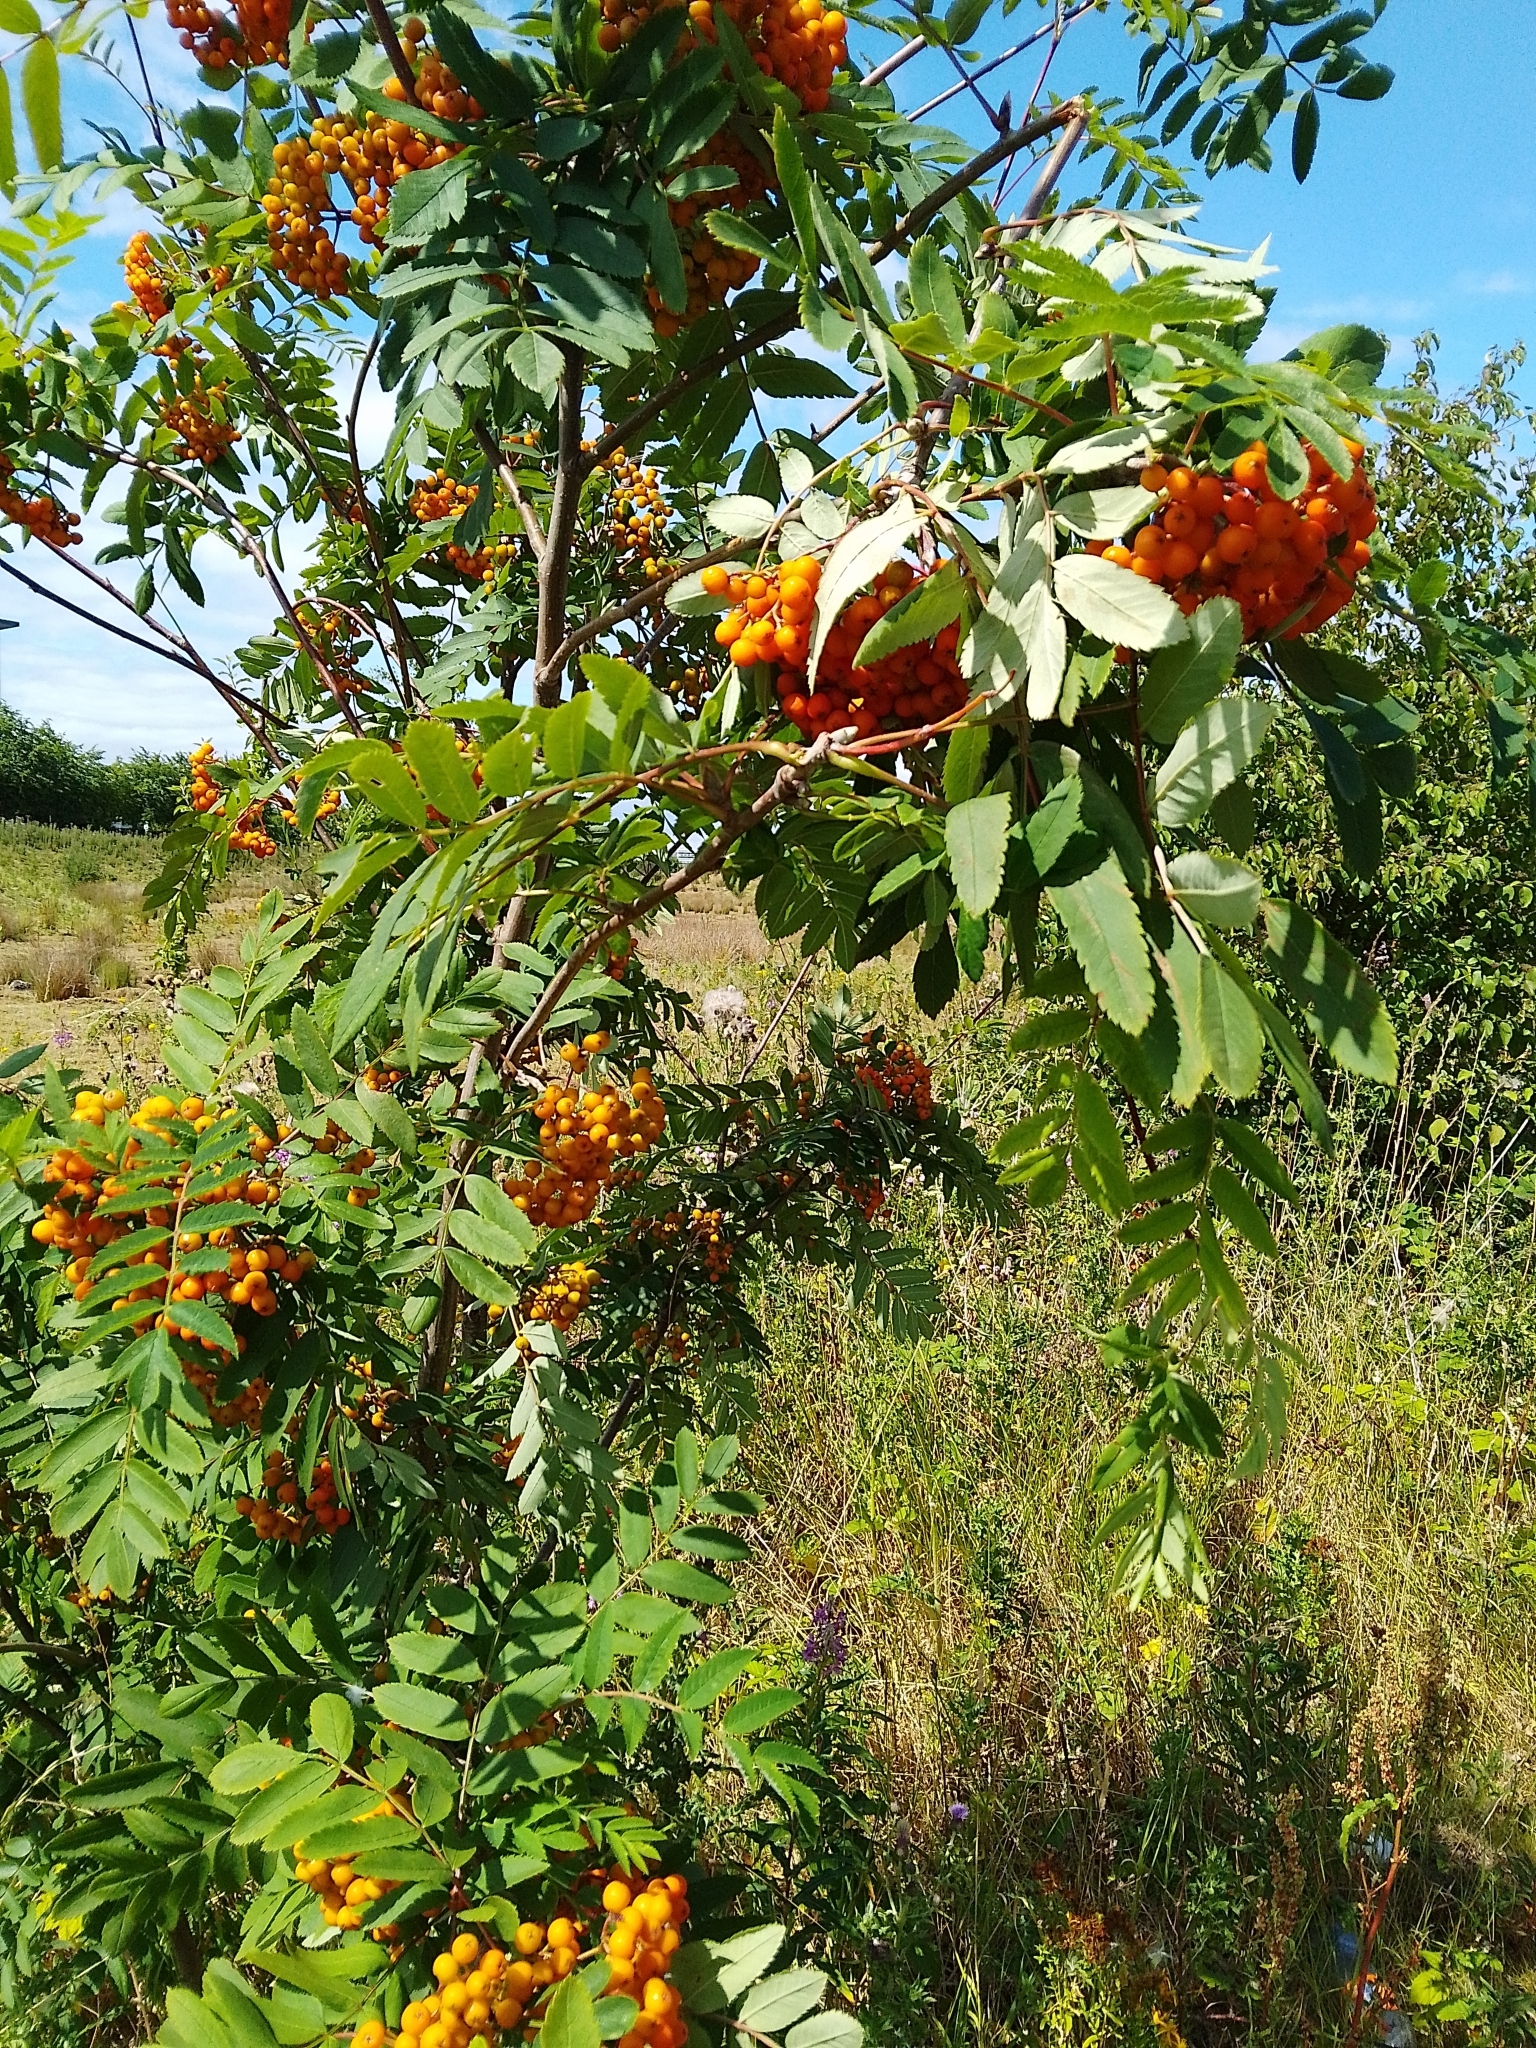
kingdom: Plantae
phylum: Tracheophyta
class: Magnoliopsida
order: Rosales
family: Rosaceae
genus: Sorbus
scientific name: Sorbus aucuparia
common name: Rowan
